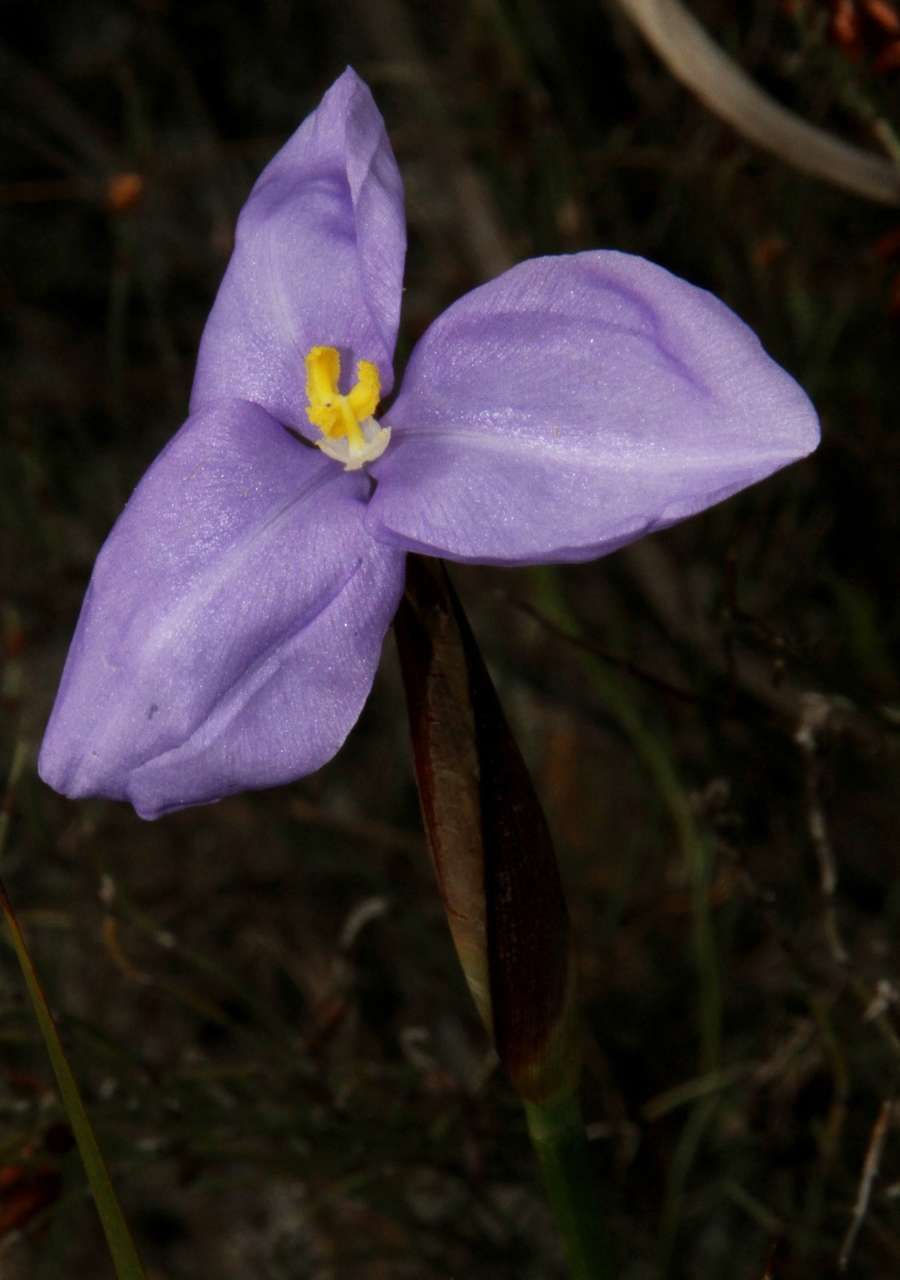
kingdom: Plantae
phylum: Tracheophyta
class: Liliopsida
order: Asparagales
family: Iridaceae
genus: Patersonia
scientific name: Patersonia glabrata
